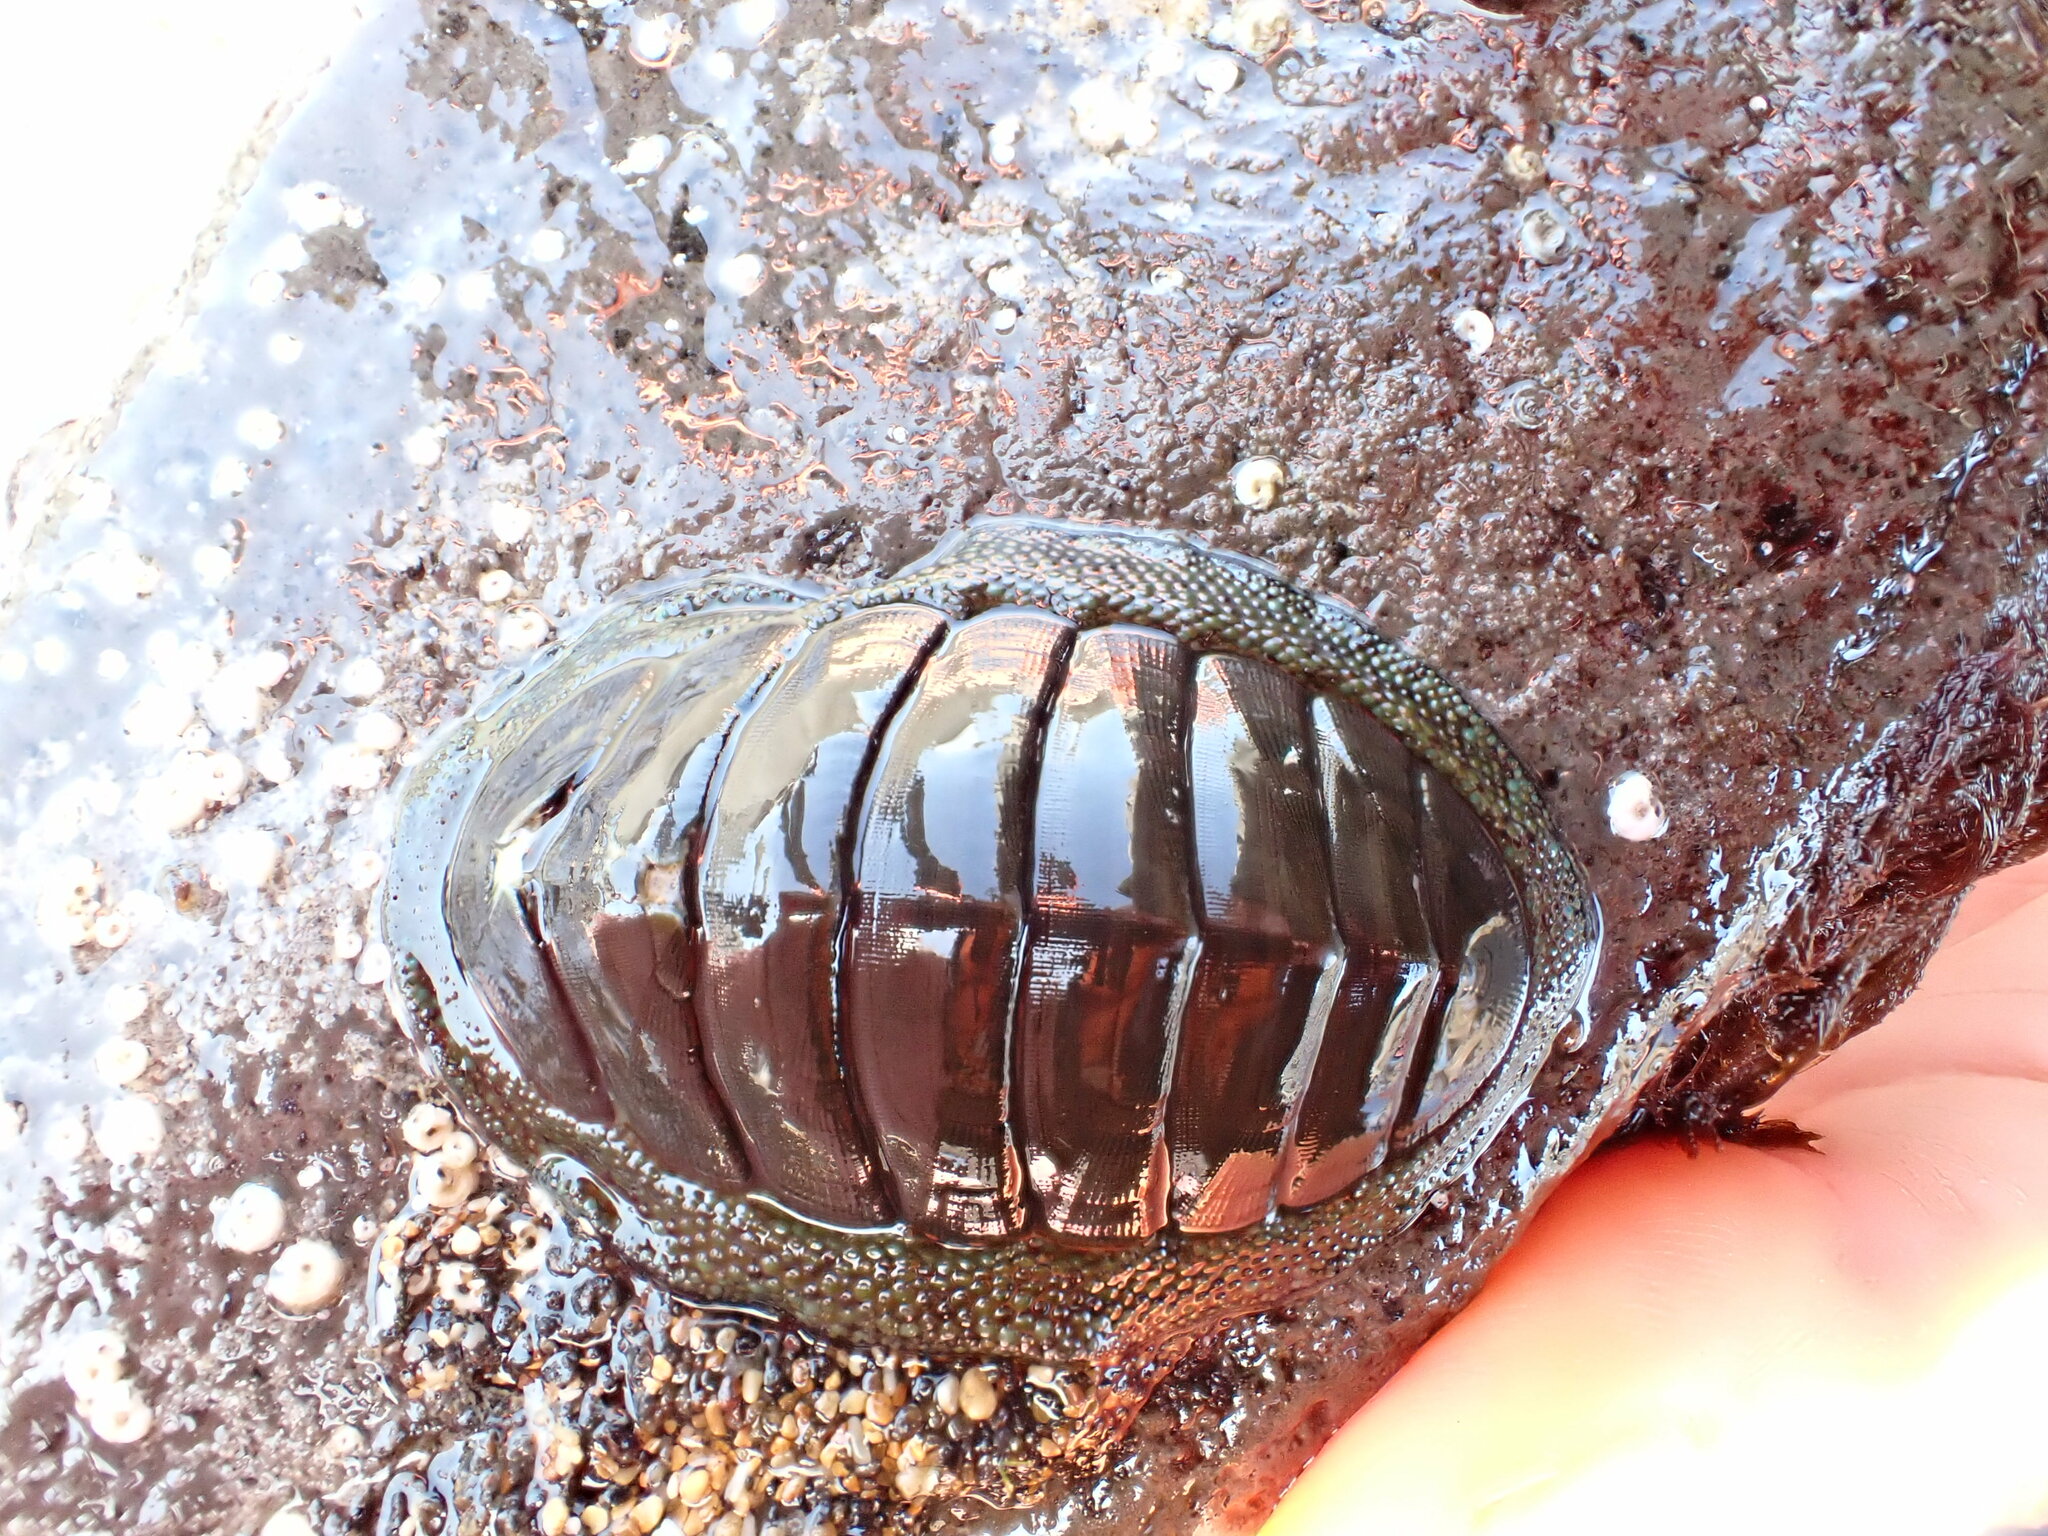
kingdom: Animalia
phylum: Mollusca
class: Polyplacophora
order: Chitonida
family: Chitonidae
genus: Chiton
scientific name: Chiton glaucus
